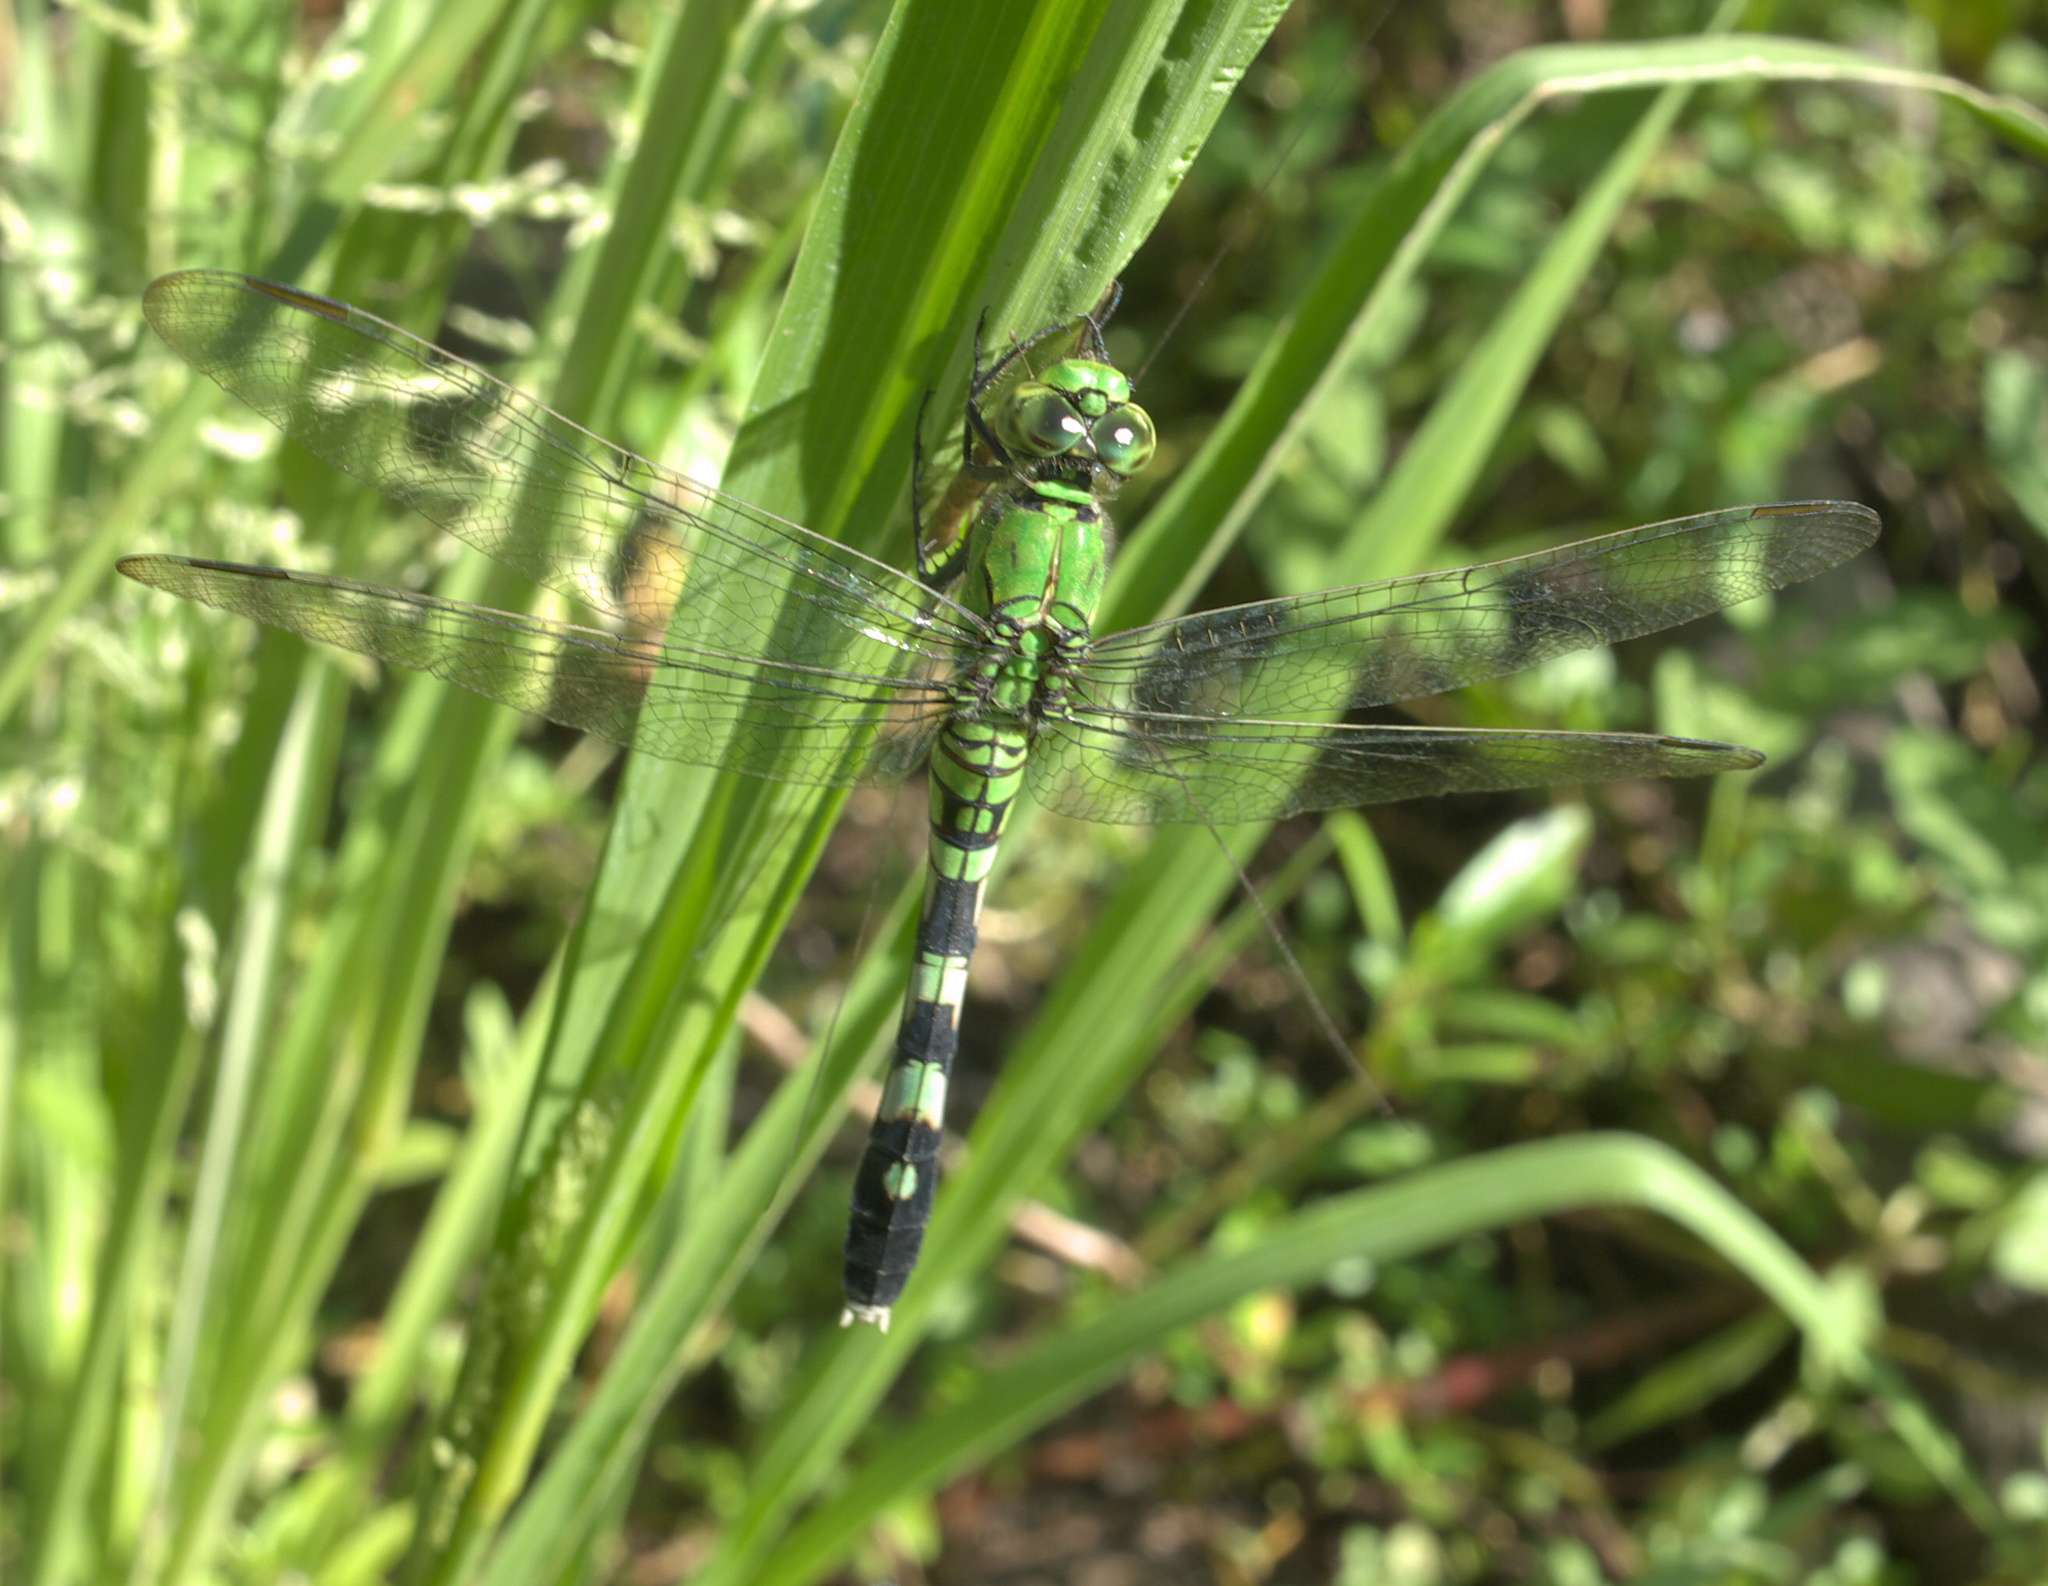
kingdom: Animalia
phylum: Arthropoda
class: Insecta
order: Odonata
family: Libellulidae
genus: Erythemis
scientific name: Erythemis simplicicollis
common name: Eastern pondhawk
